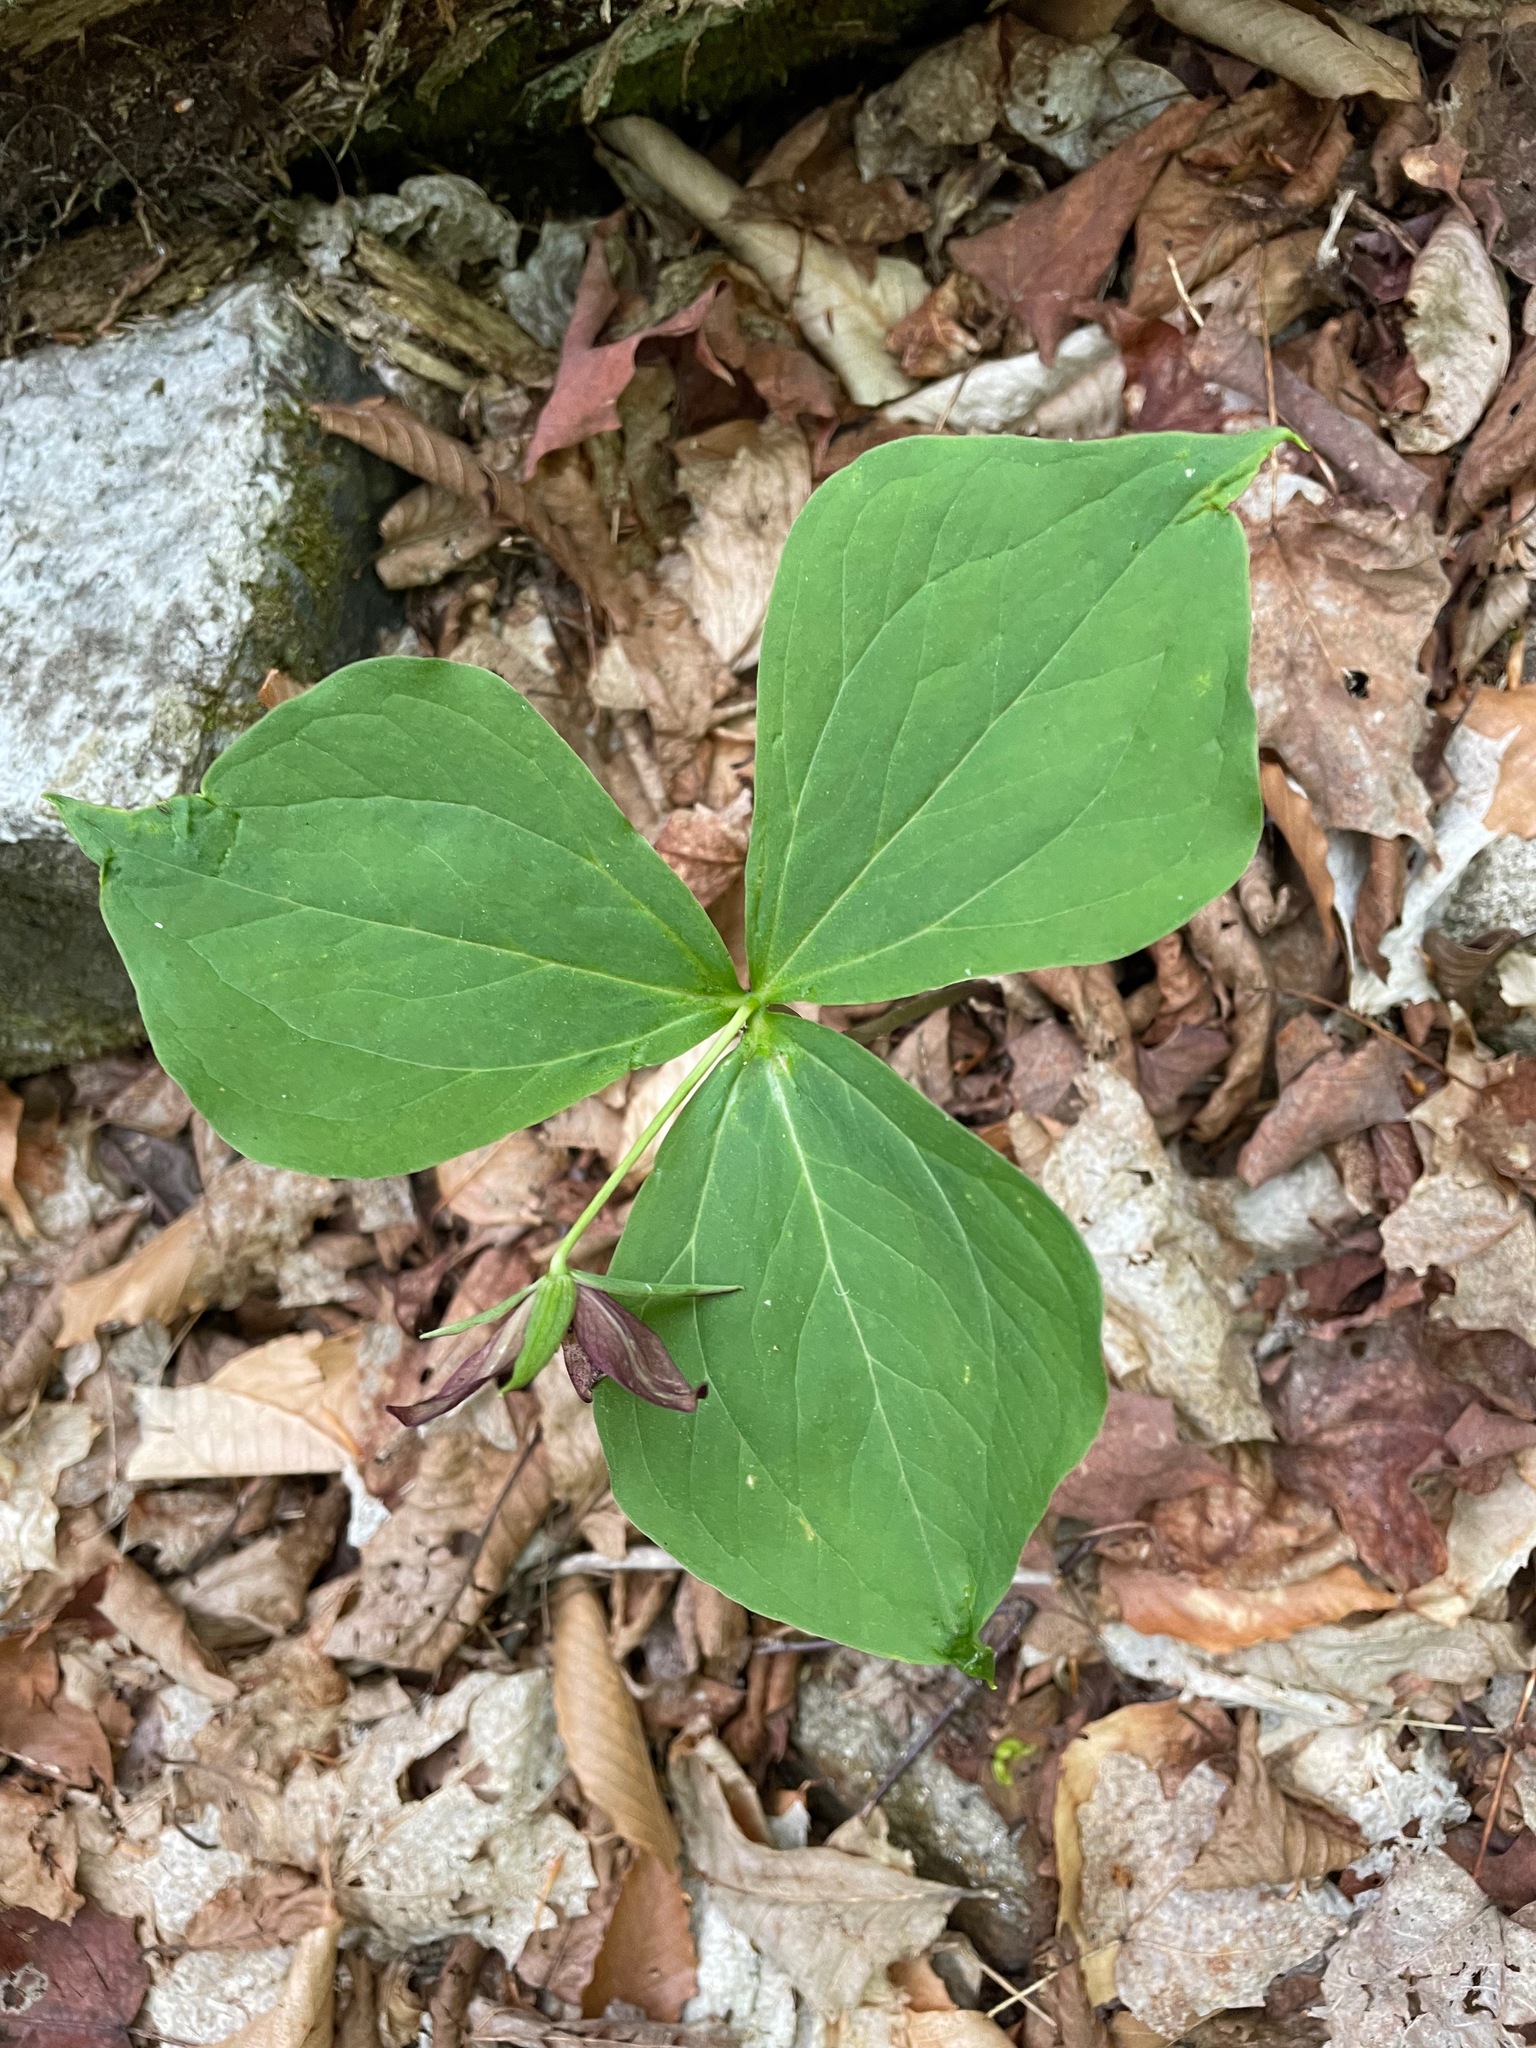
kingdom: Plantae
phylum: Tracheophyta
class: Liliopsida
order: Liliales
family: Melanthiaceae
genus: Trillium
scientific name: Trillium erectum
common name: Purple trillium
